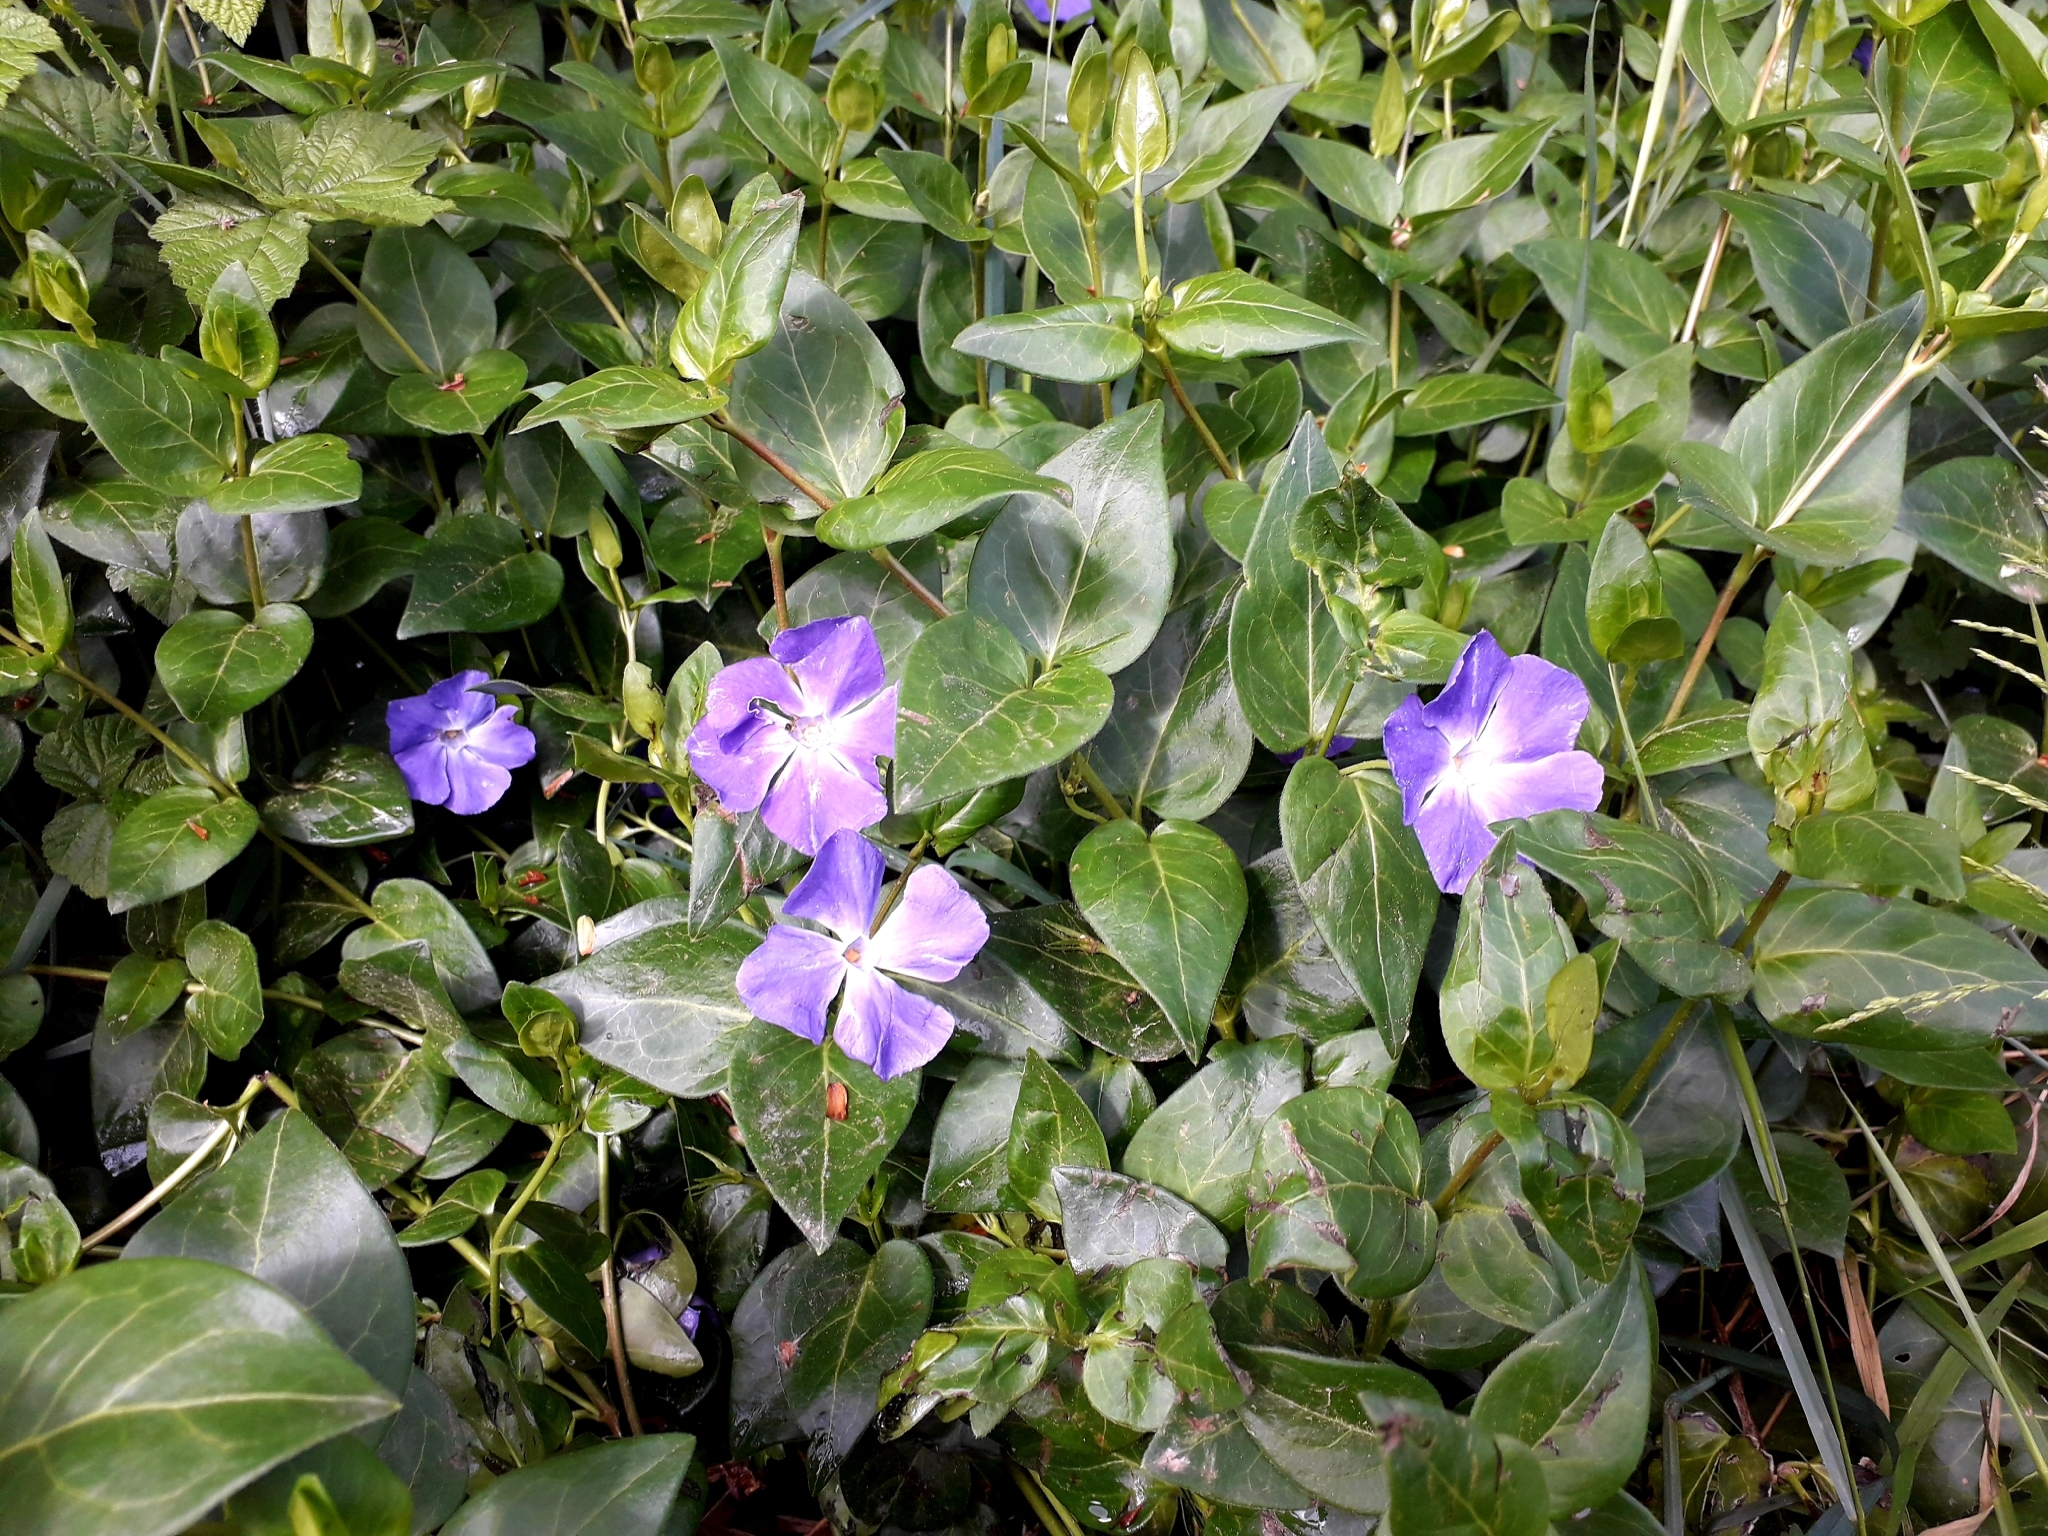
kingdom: Plantae
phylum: Tracheophyta
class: Magnoliopsida
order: Gentianales
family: Apocynaceae
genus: Vinca
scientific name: Vinca major
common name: Greater periwinkle
